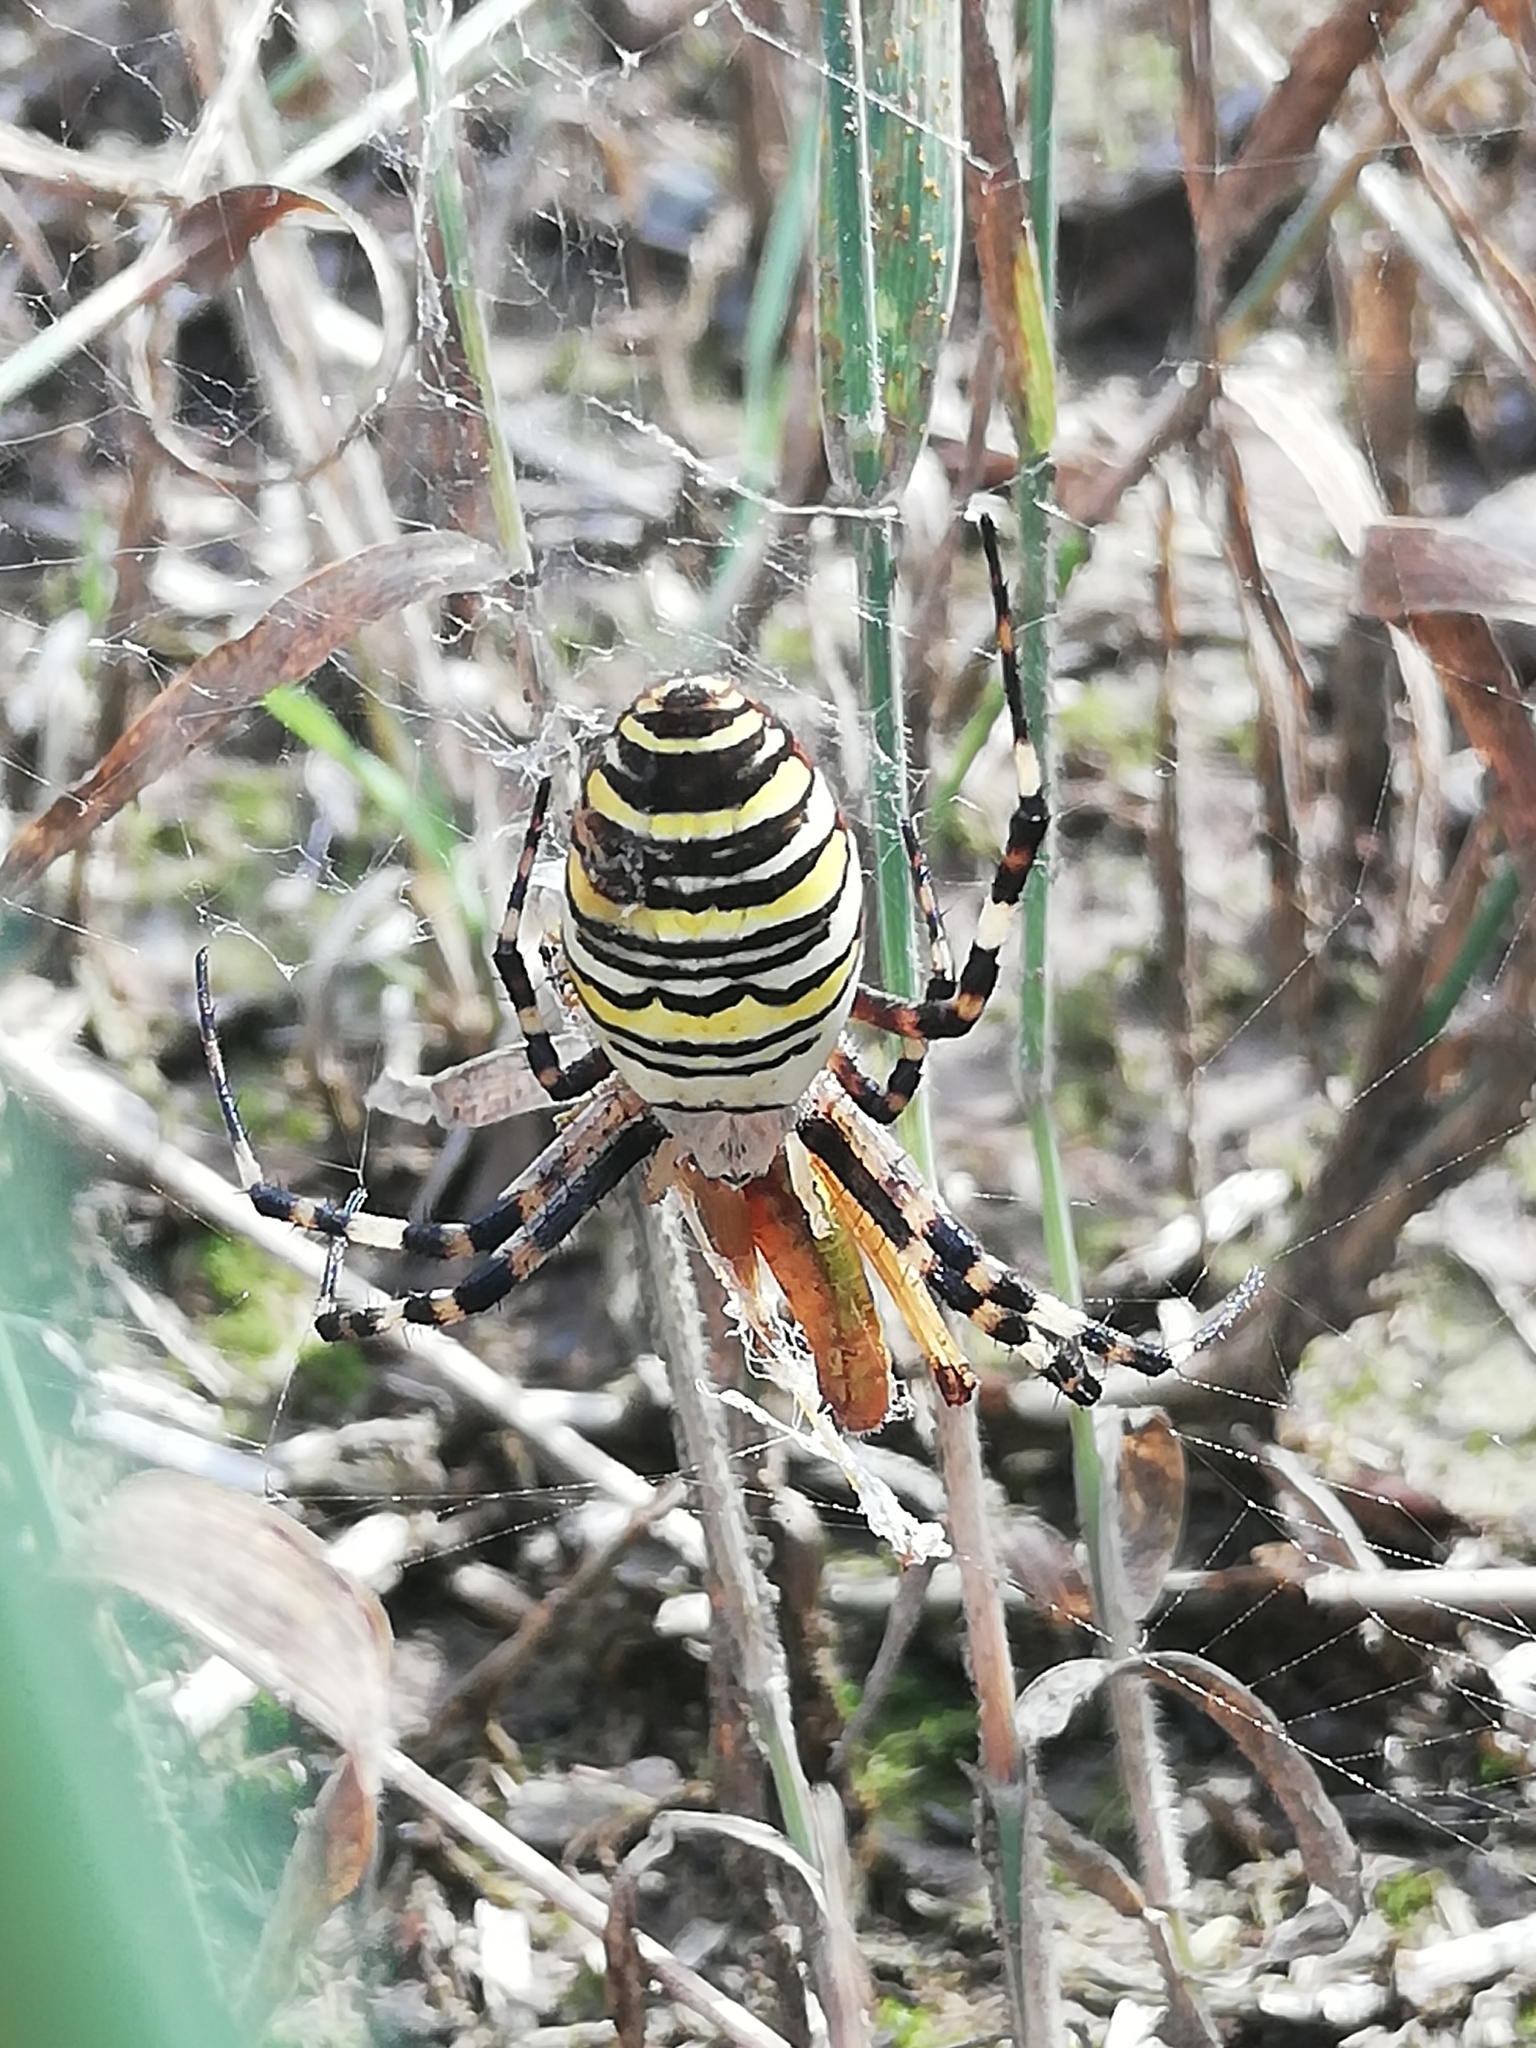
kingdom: Animalia
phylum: Arthropoda
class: Arachnida
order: Araneae
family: Araneidae
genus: Argiope
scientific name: Argiope bruennichi
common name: Wasp spider
